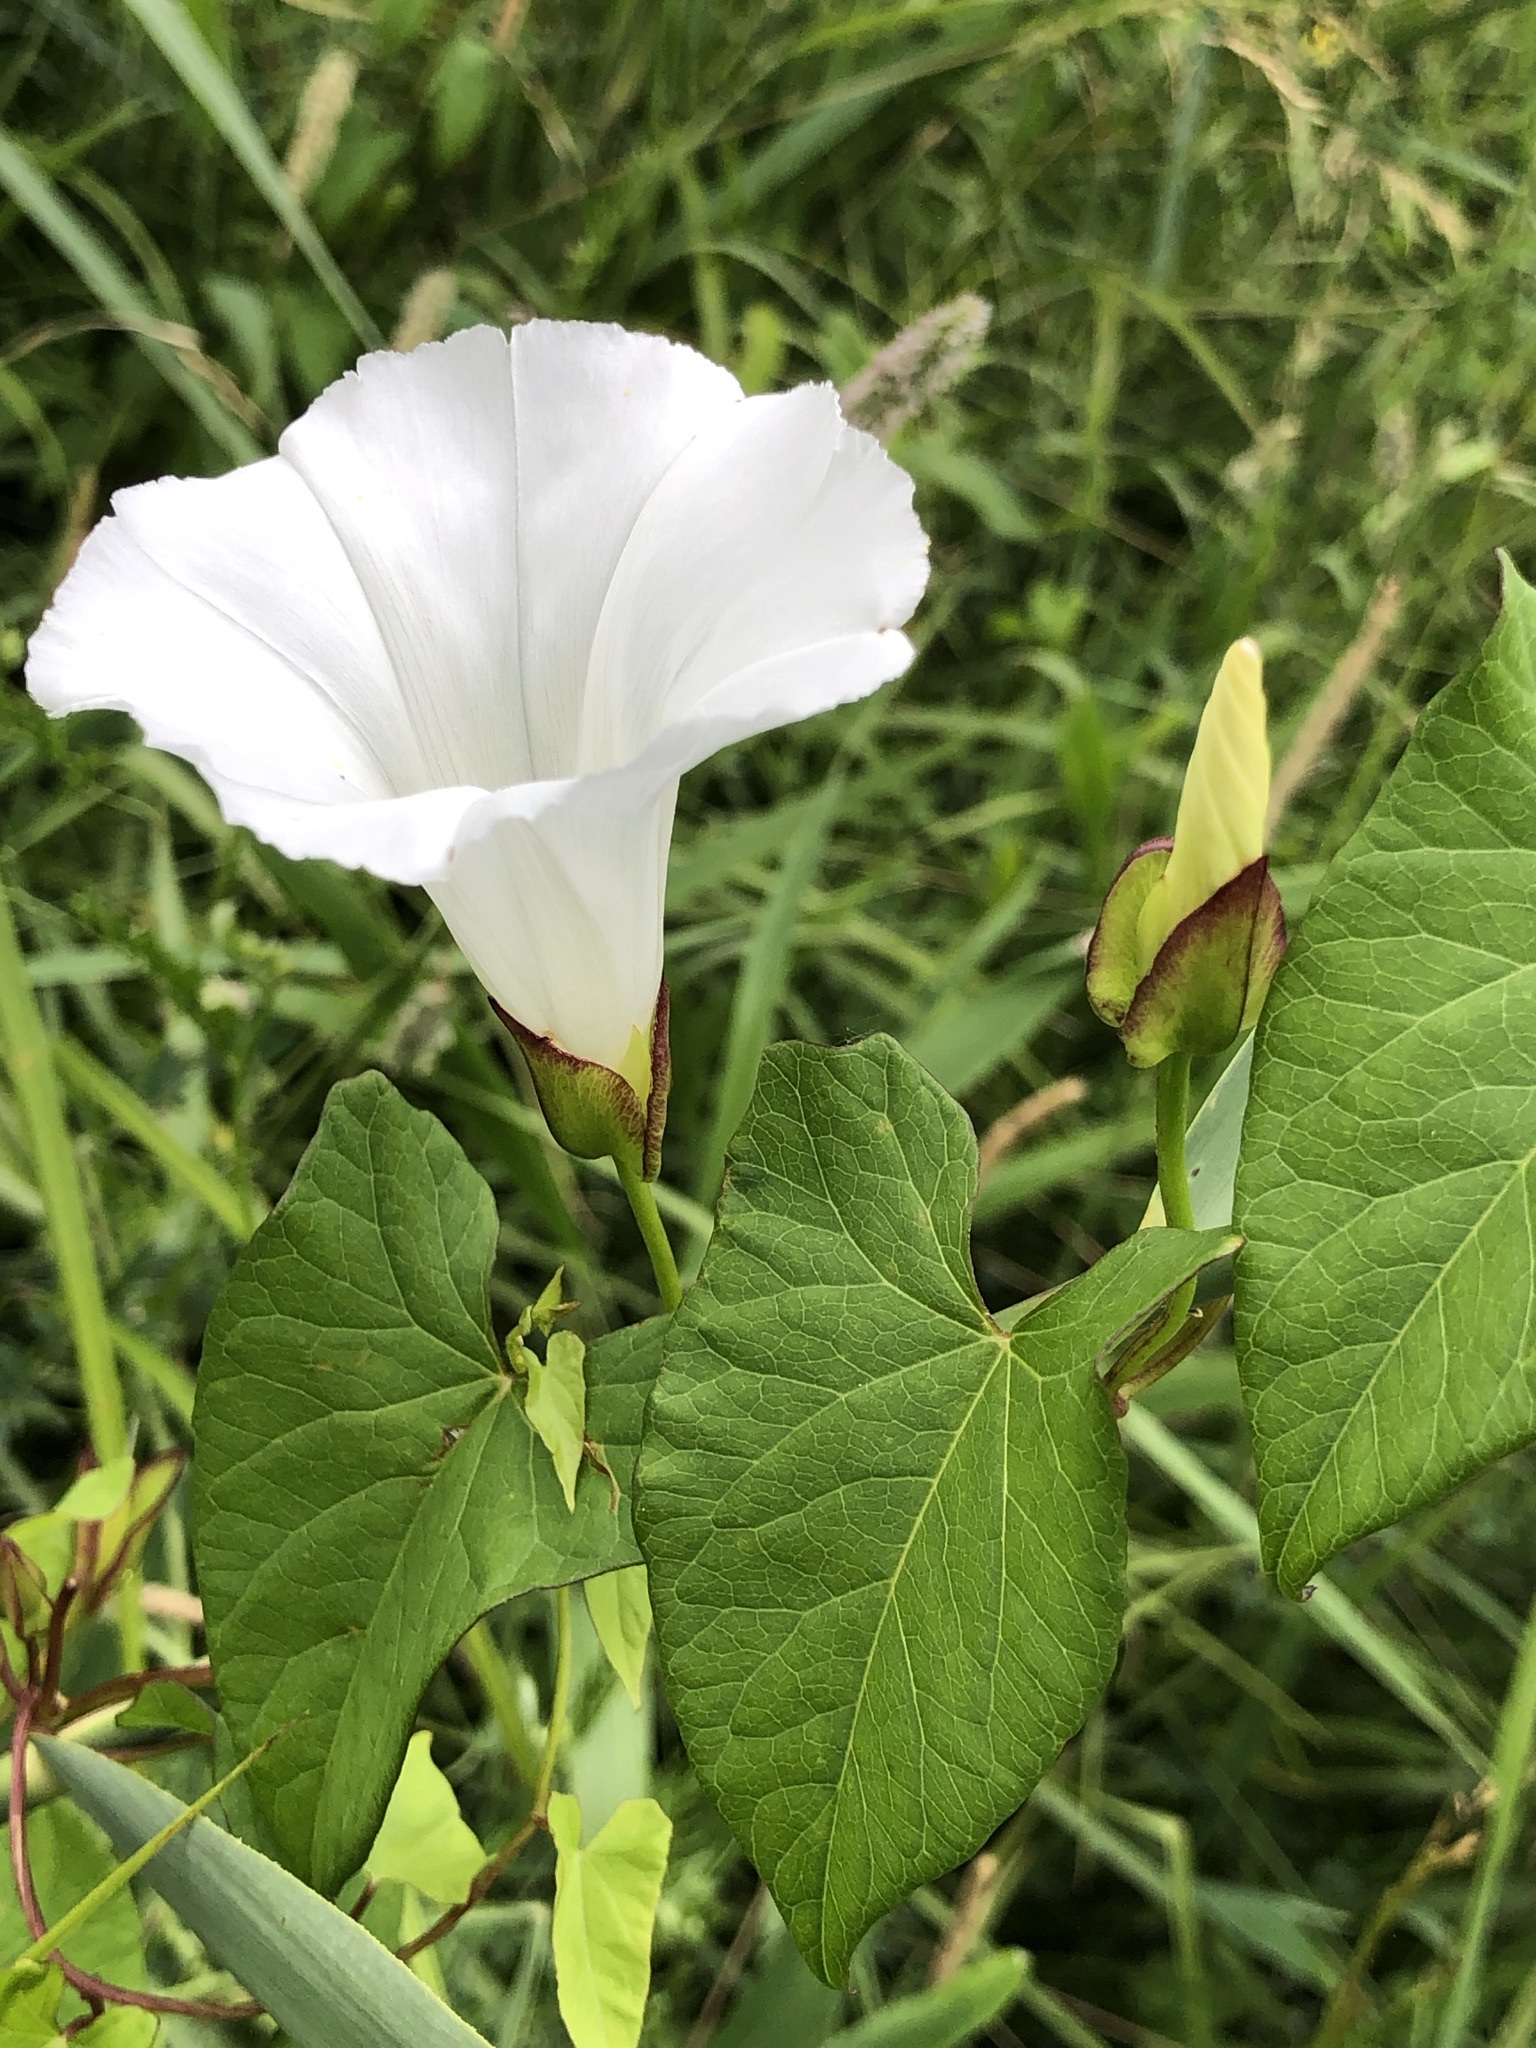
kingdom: Plantae
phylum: Tracheophyta
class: Magnoliopsida
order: Solanales
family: Convolvulaceae
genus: Calystegia
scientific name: Calystegia sepium
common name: Hedge bindweed
